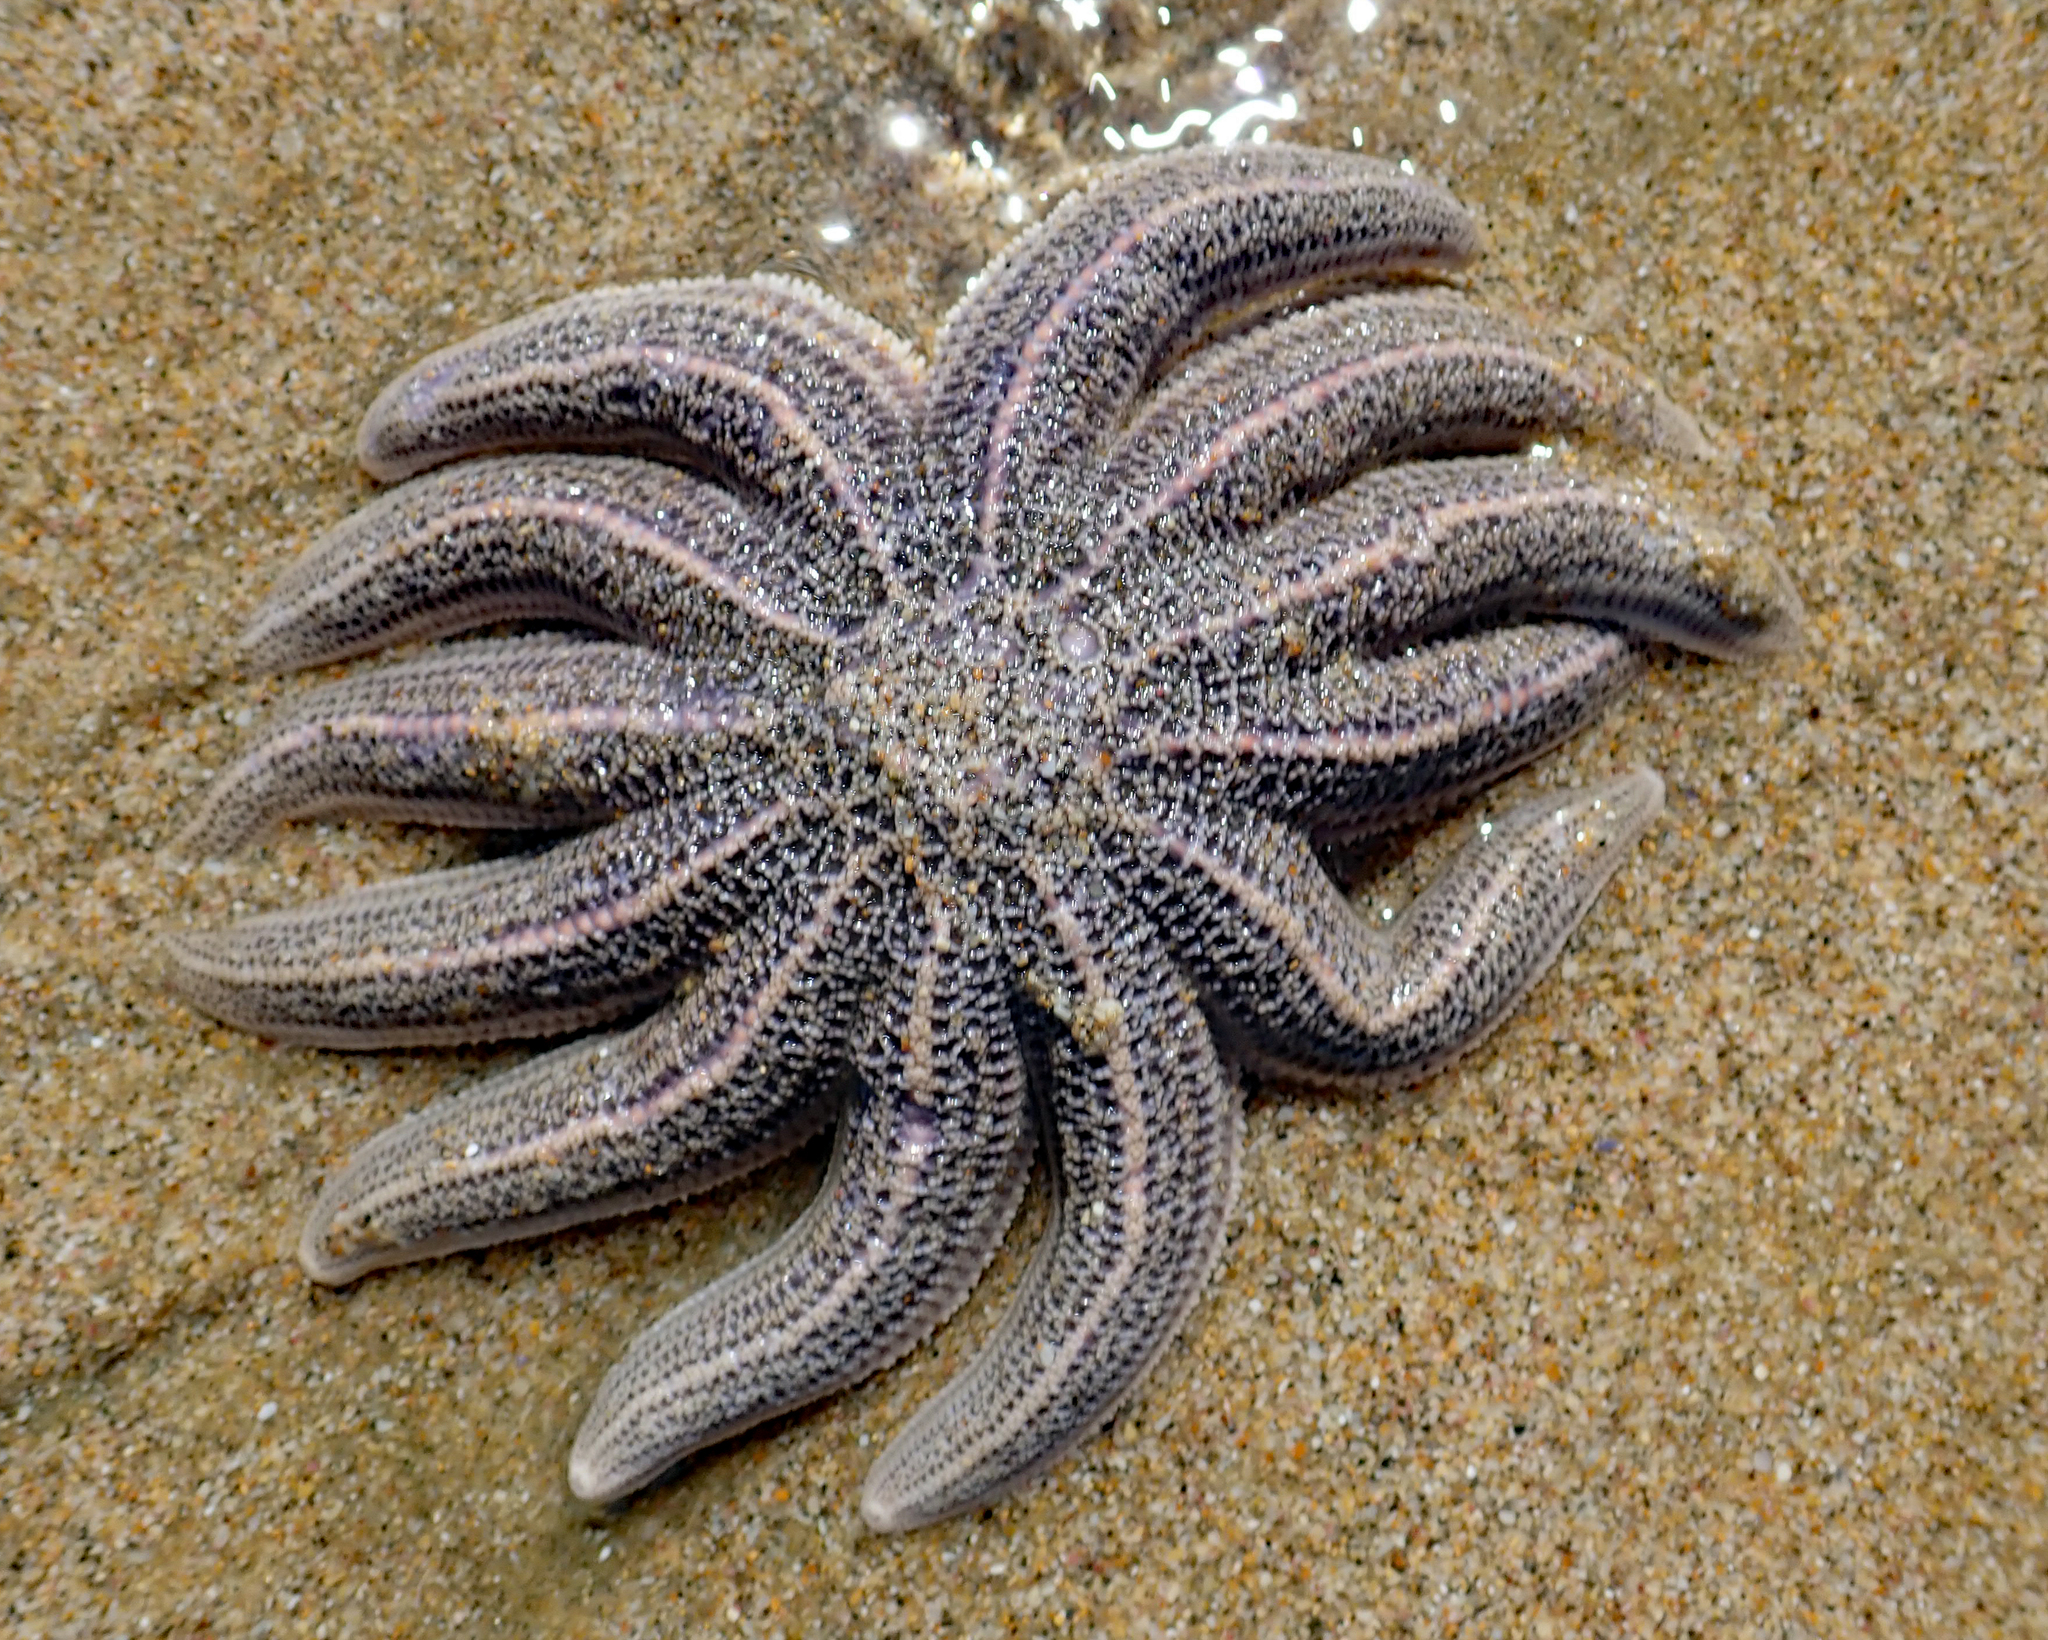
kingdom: Animalia
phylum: Echinodermata
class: Asteroidea
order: Forcipulatida
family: Stichasteridae
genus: Stichaster
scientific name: Stichaster australis
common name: Reef starfish
